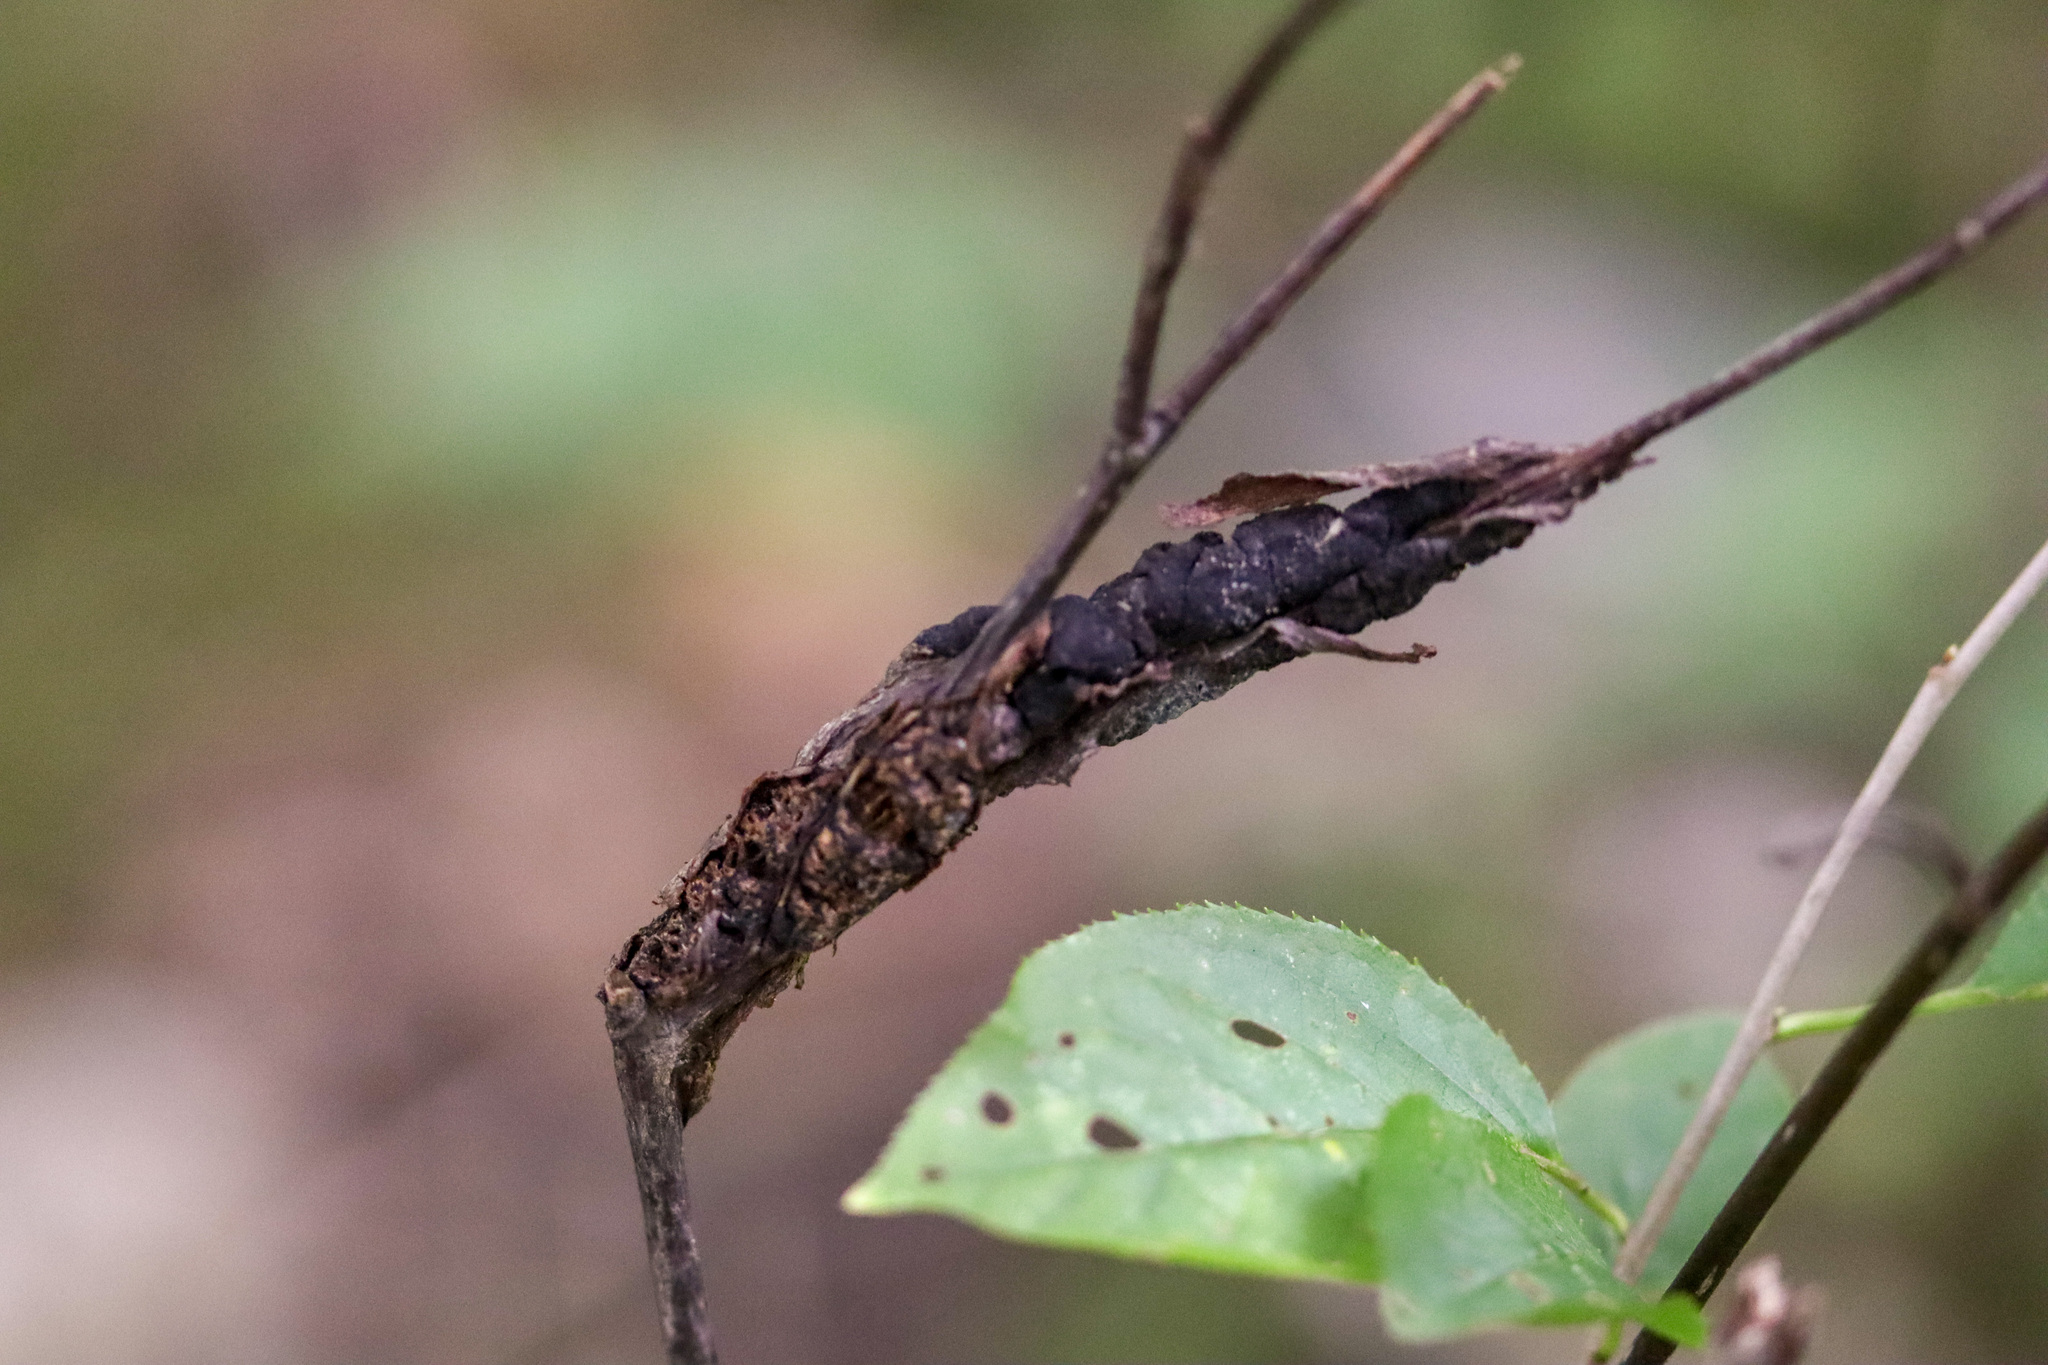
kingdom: Fungi
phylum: Ascomycota
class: Dothideomycetes
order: Venturiales
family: Venturiaceae
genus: Apiosporina
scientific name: Apiosporina morbosa
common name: Black knot
